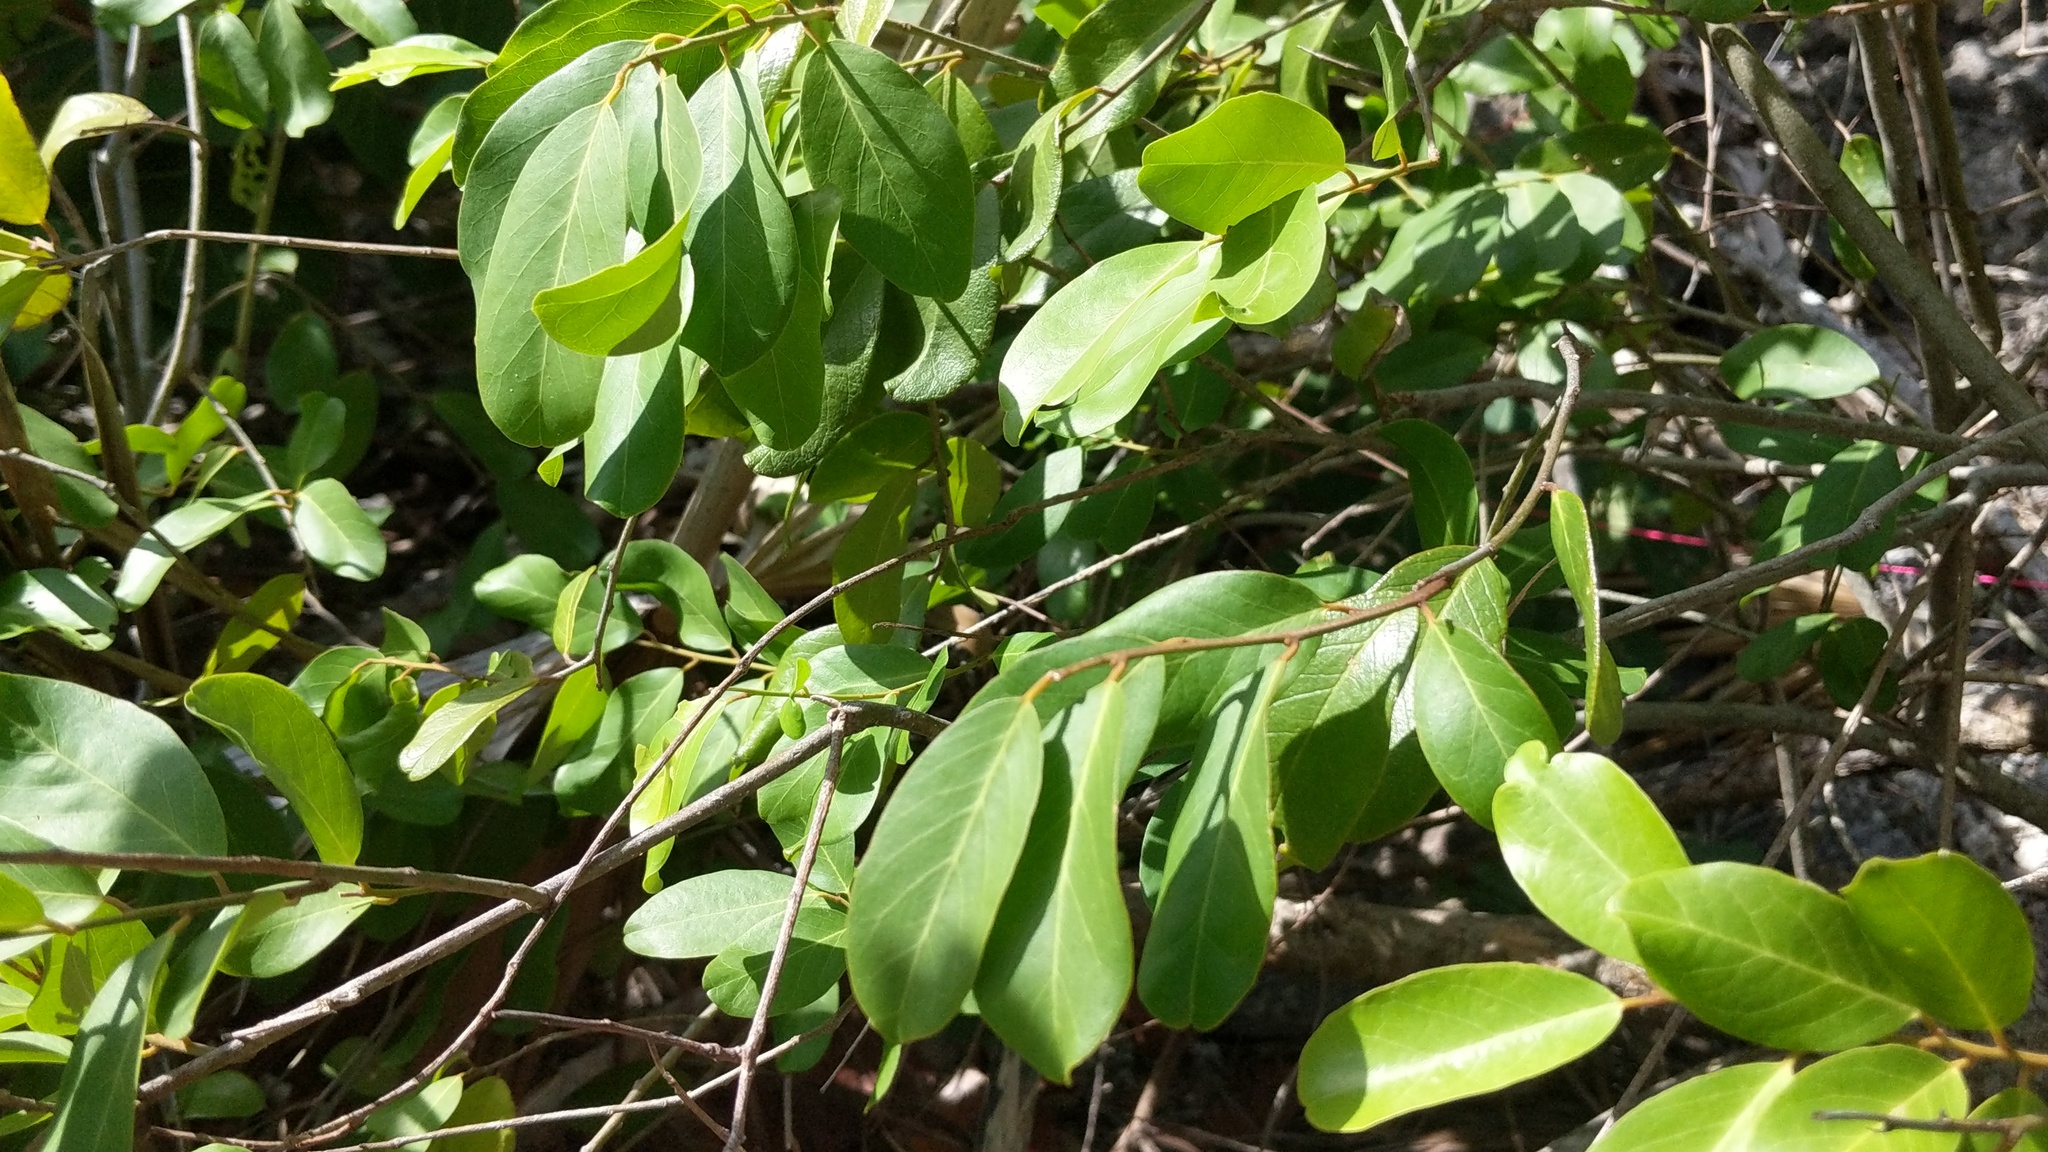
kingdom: Plantae
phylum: Tracheophyta
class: Magnoliopsida
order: Brassicales
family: Capparaceae
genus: Cynophalla
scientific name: Cynophalla flexuosa
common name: Capertree
